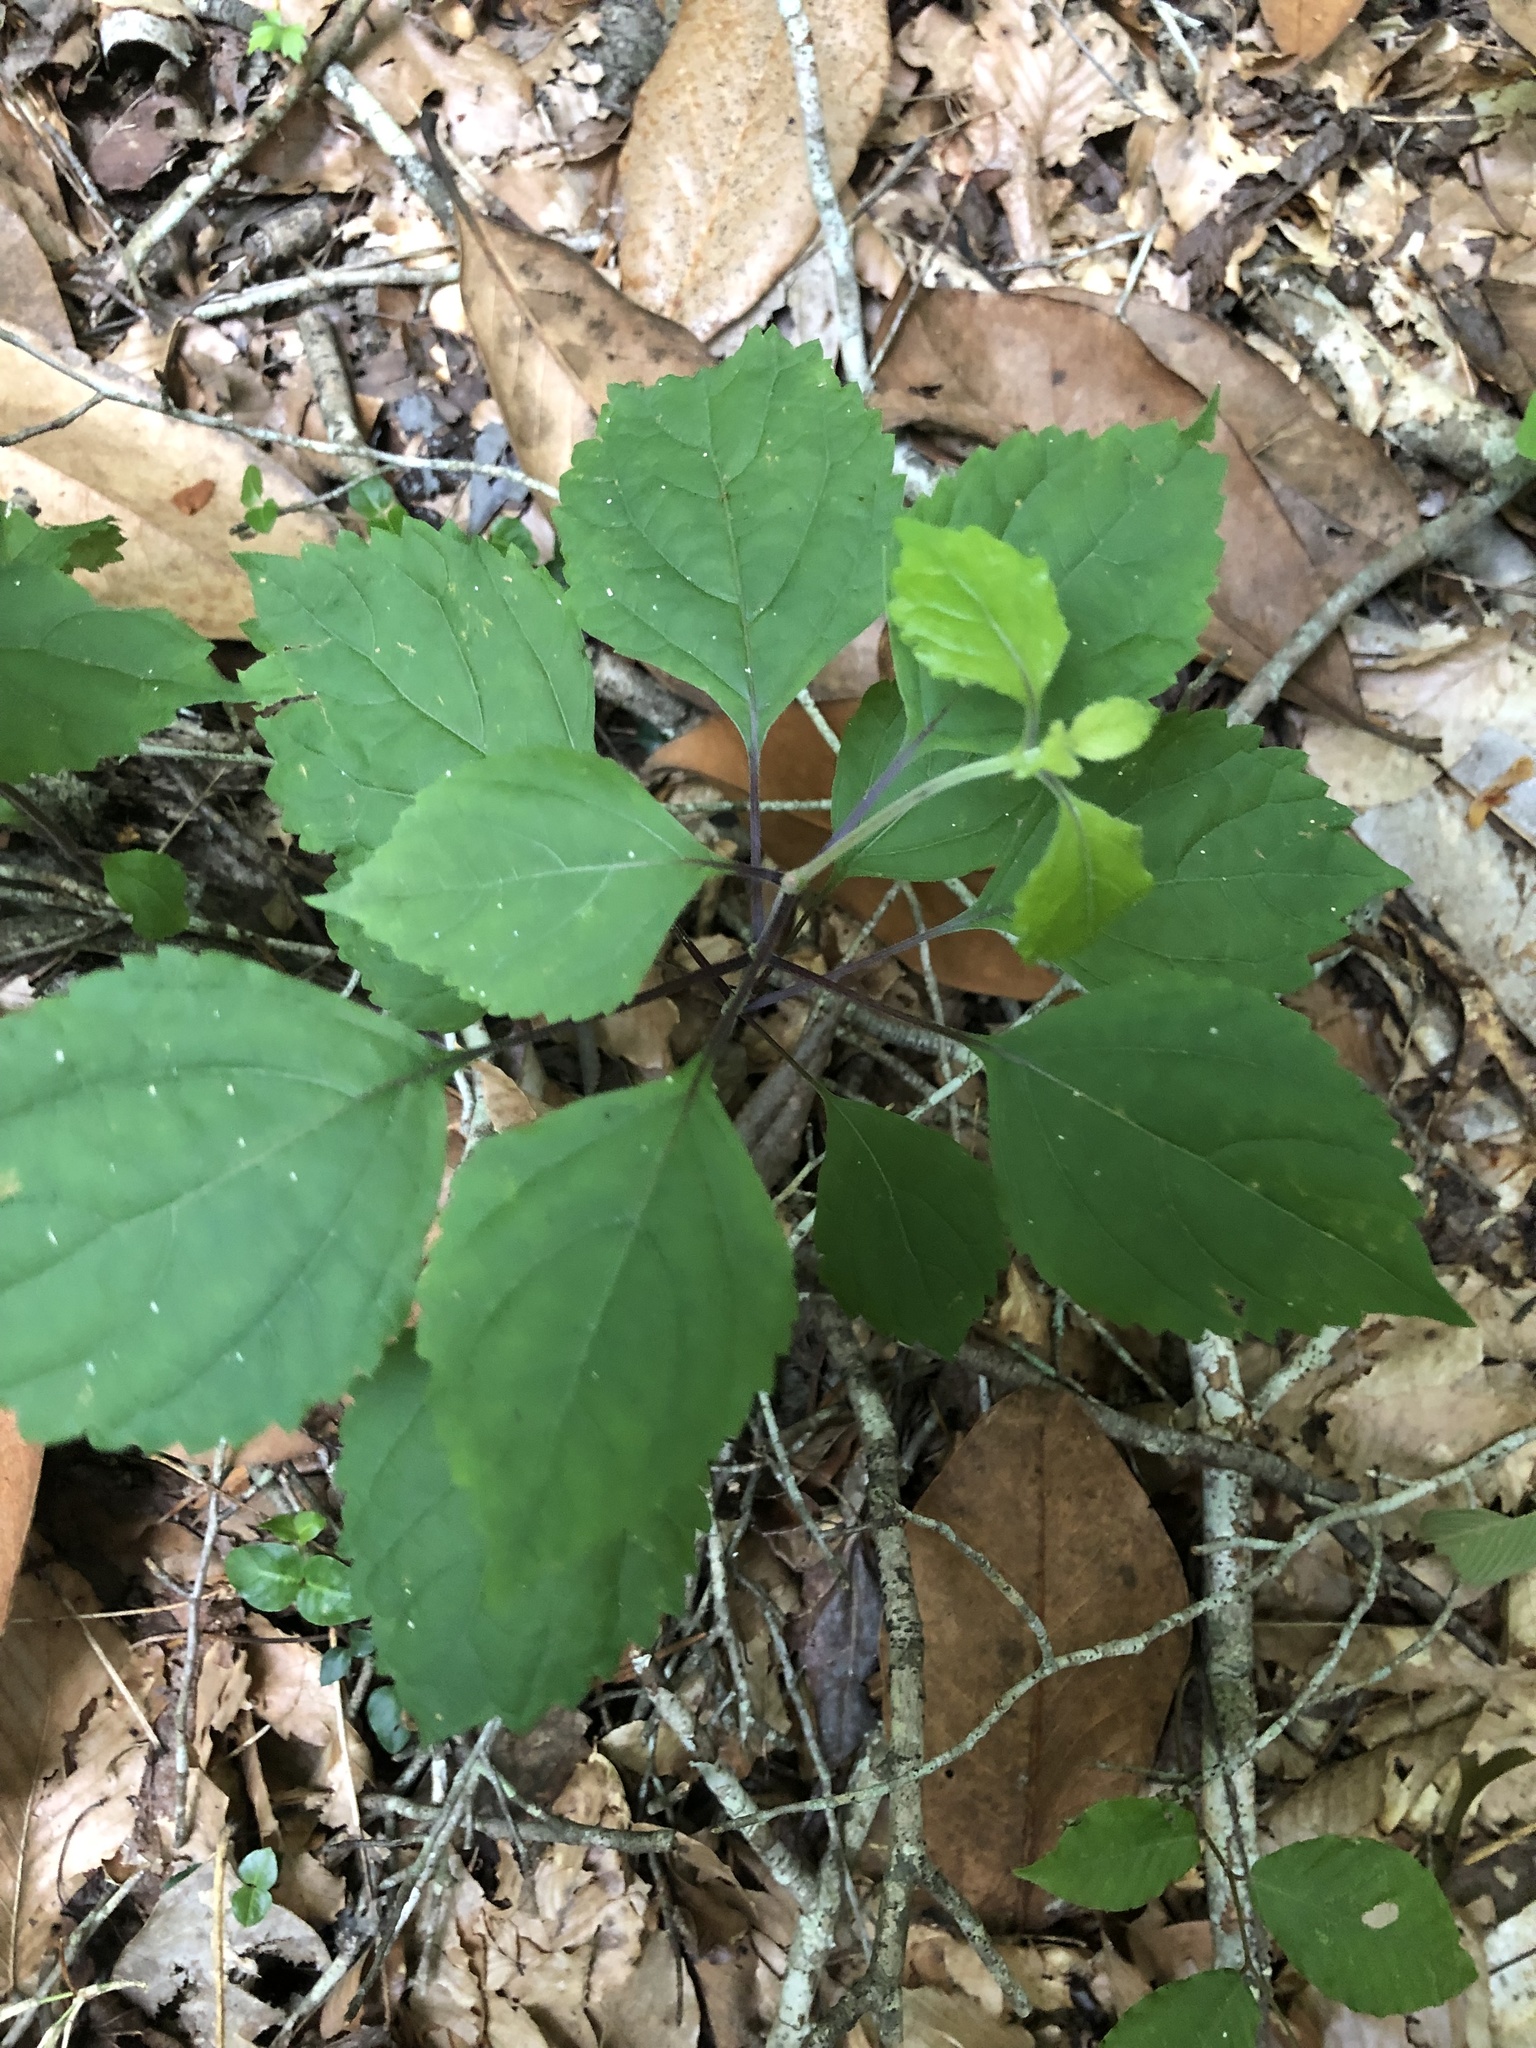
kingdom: Plantae
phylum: Tracheophyta
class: Magnoliopsida
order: Lamiales
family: Lamiaceae
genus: Collinsonia
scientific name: Collinsonia canadensis
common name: Northern horsebalm
